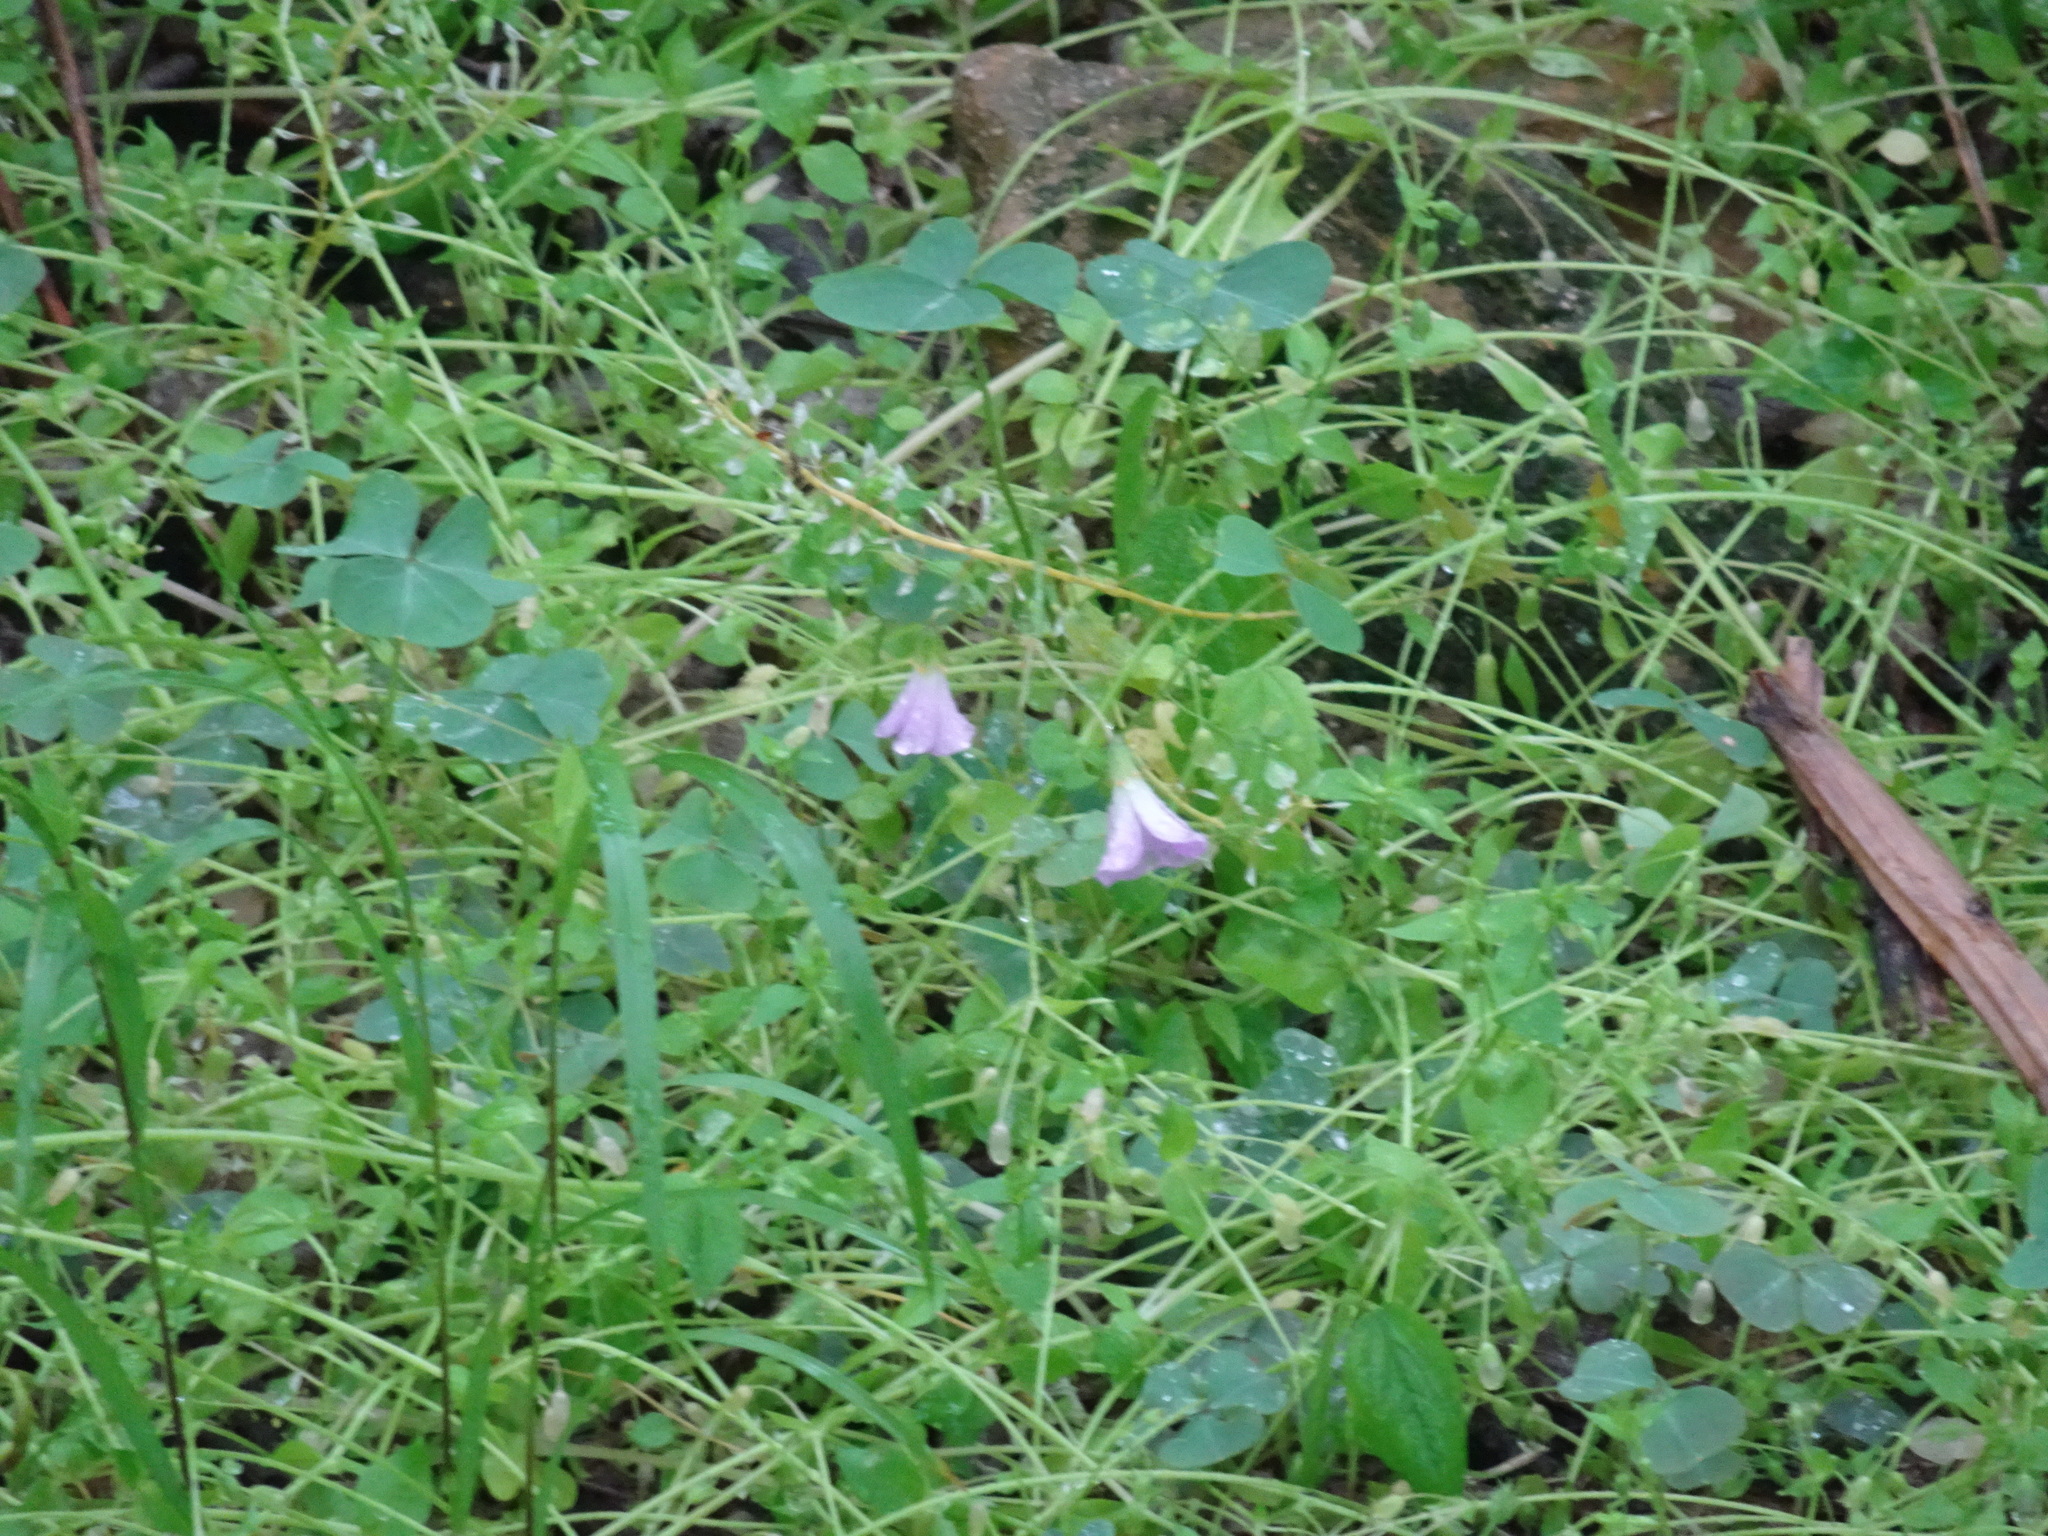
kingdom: Plantae
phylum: Tracheophyta
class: Magnoliopsida
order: Oxalidales
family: Oxalidaceae
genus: Oxalis
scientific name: Oxalis violacea
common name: Violet wood-sorrel
